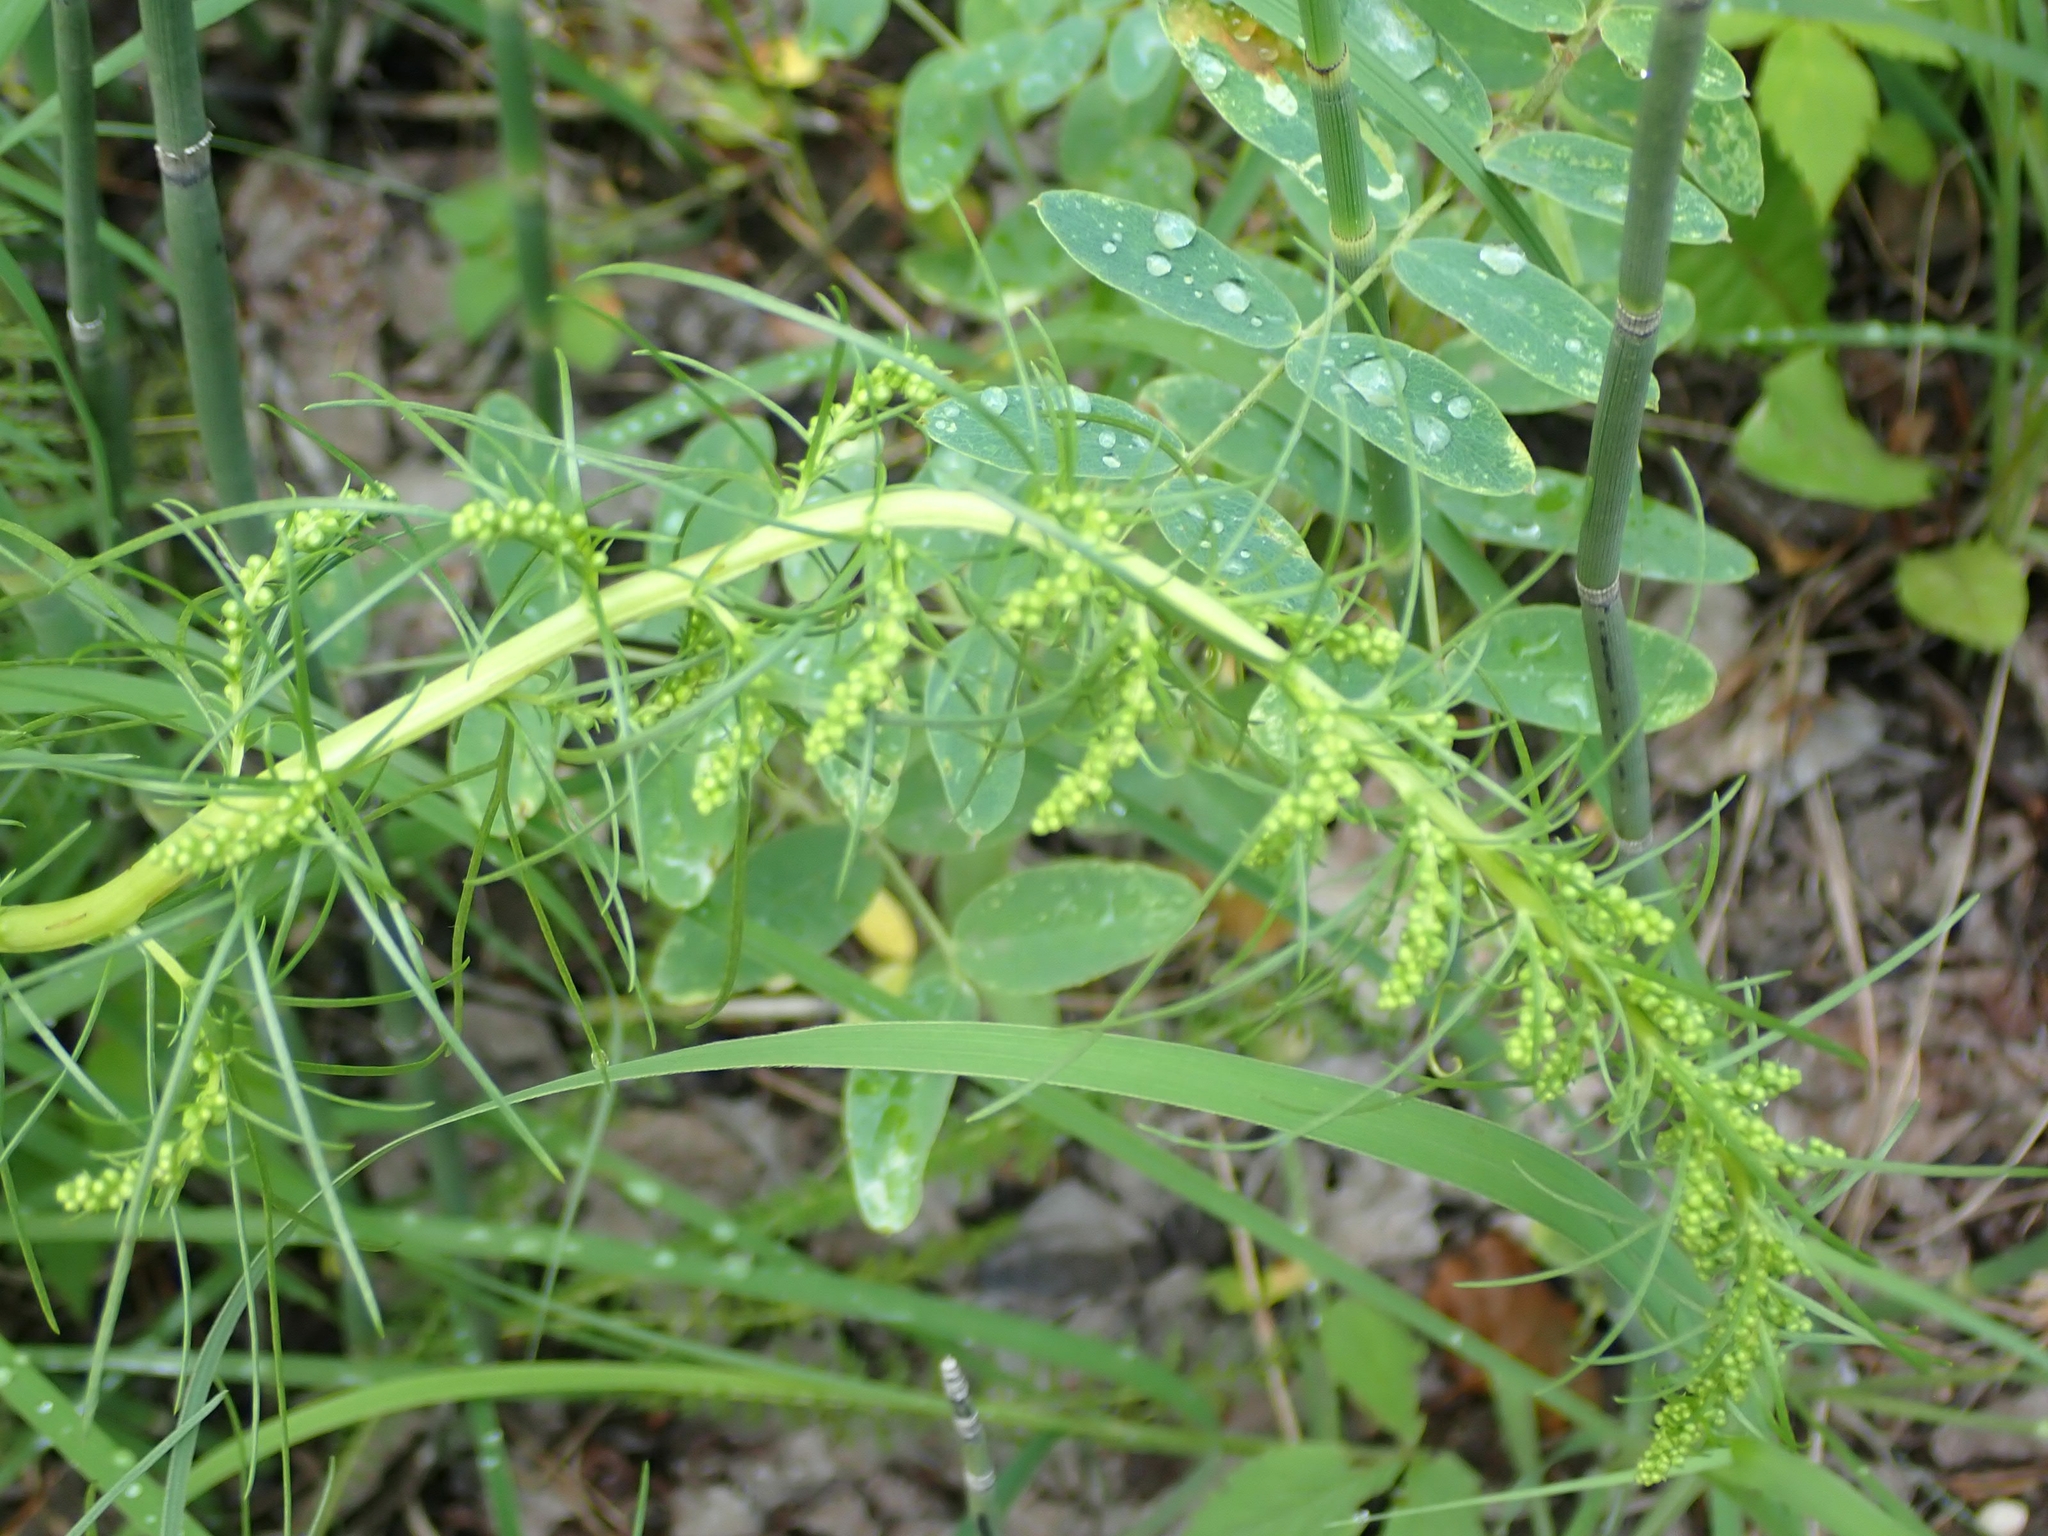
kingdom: Plantae
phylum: Tracheophyta
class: Magnoliopsida
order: Asterales
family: Asteraceae
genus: Artemisia
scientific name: Artemisia campestris
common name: Field wormwood
